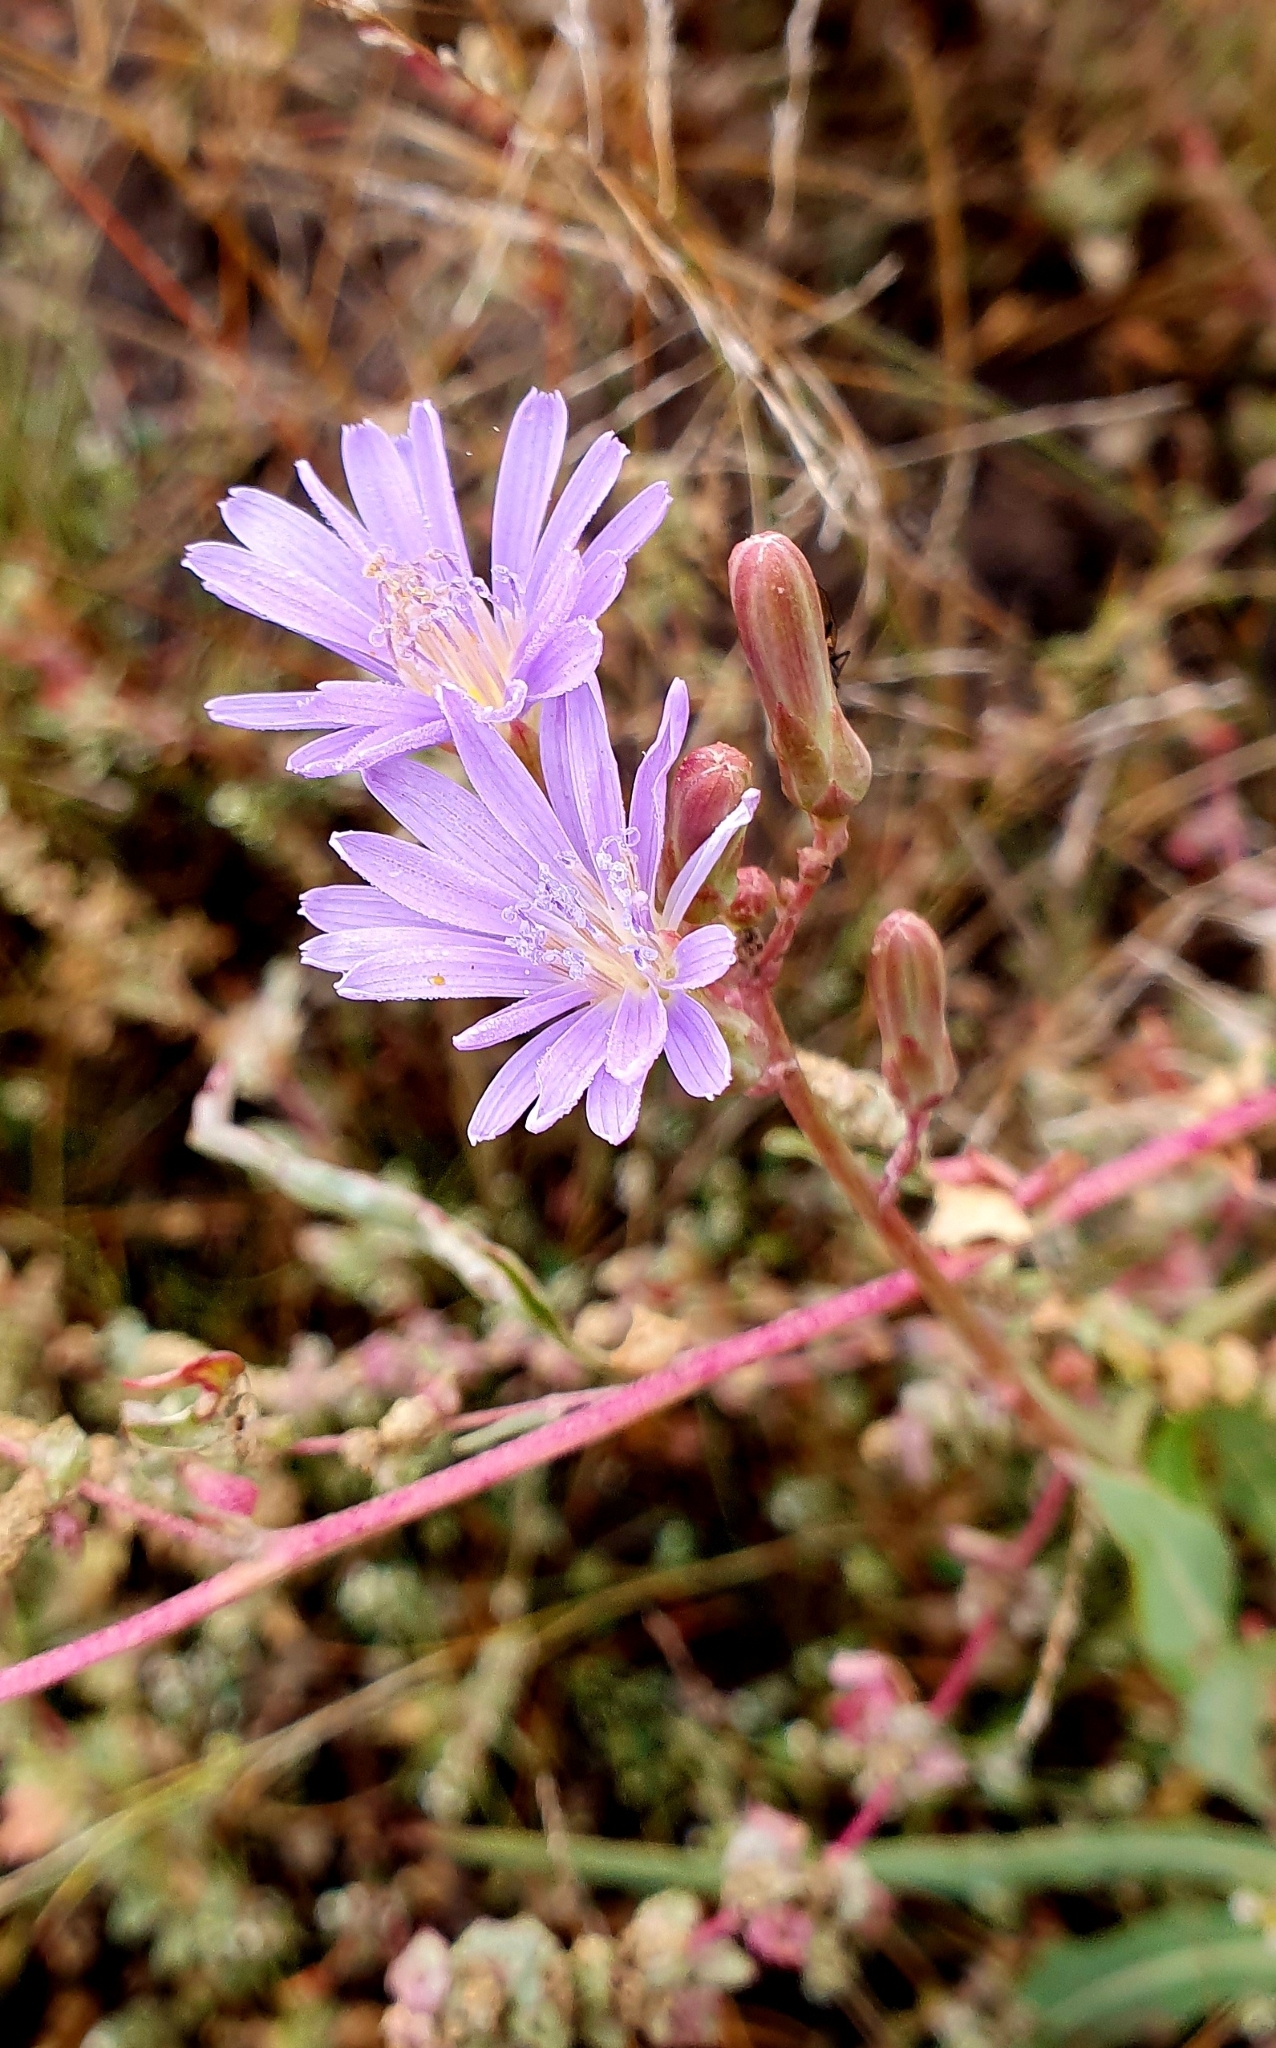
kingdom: Plantae
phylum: Tracheophyta
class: Magnoliopsida
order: Asterales
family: Asteraceae
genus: Lactuca
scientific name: Lactuca tatarica
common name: Blue lettuce
